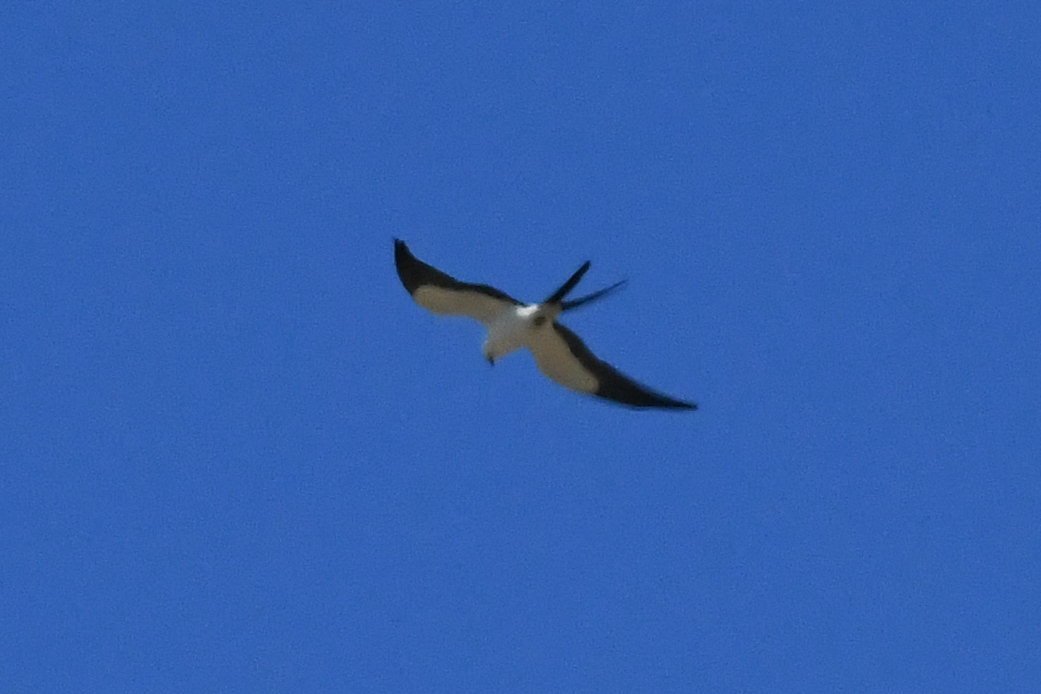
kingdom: Animalia
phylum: Chordata
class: Aves
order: Accipitriformes
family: Accipitridae
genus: Elanoides
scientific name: Elanoides forficatus
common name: Swallow-tailed kite
